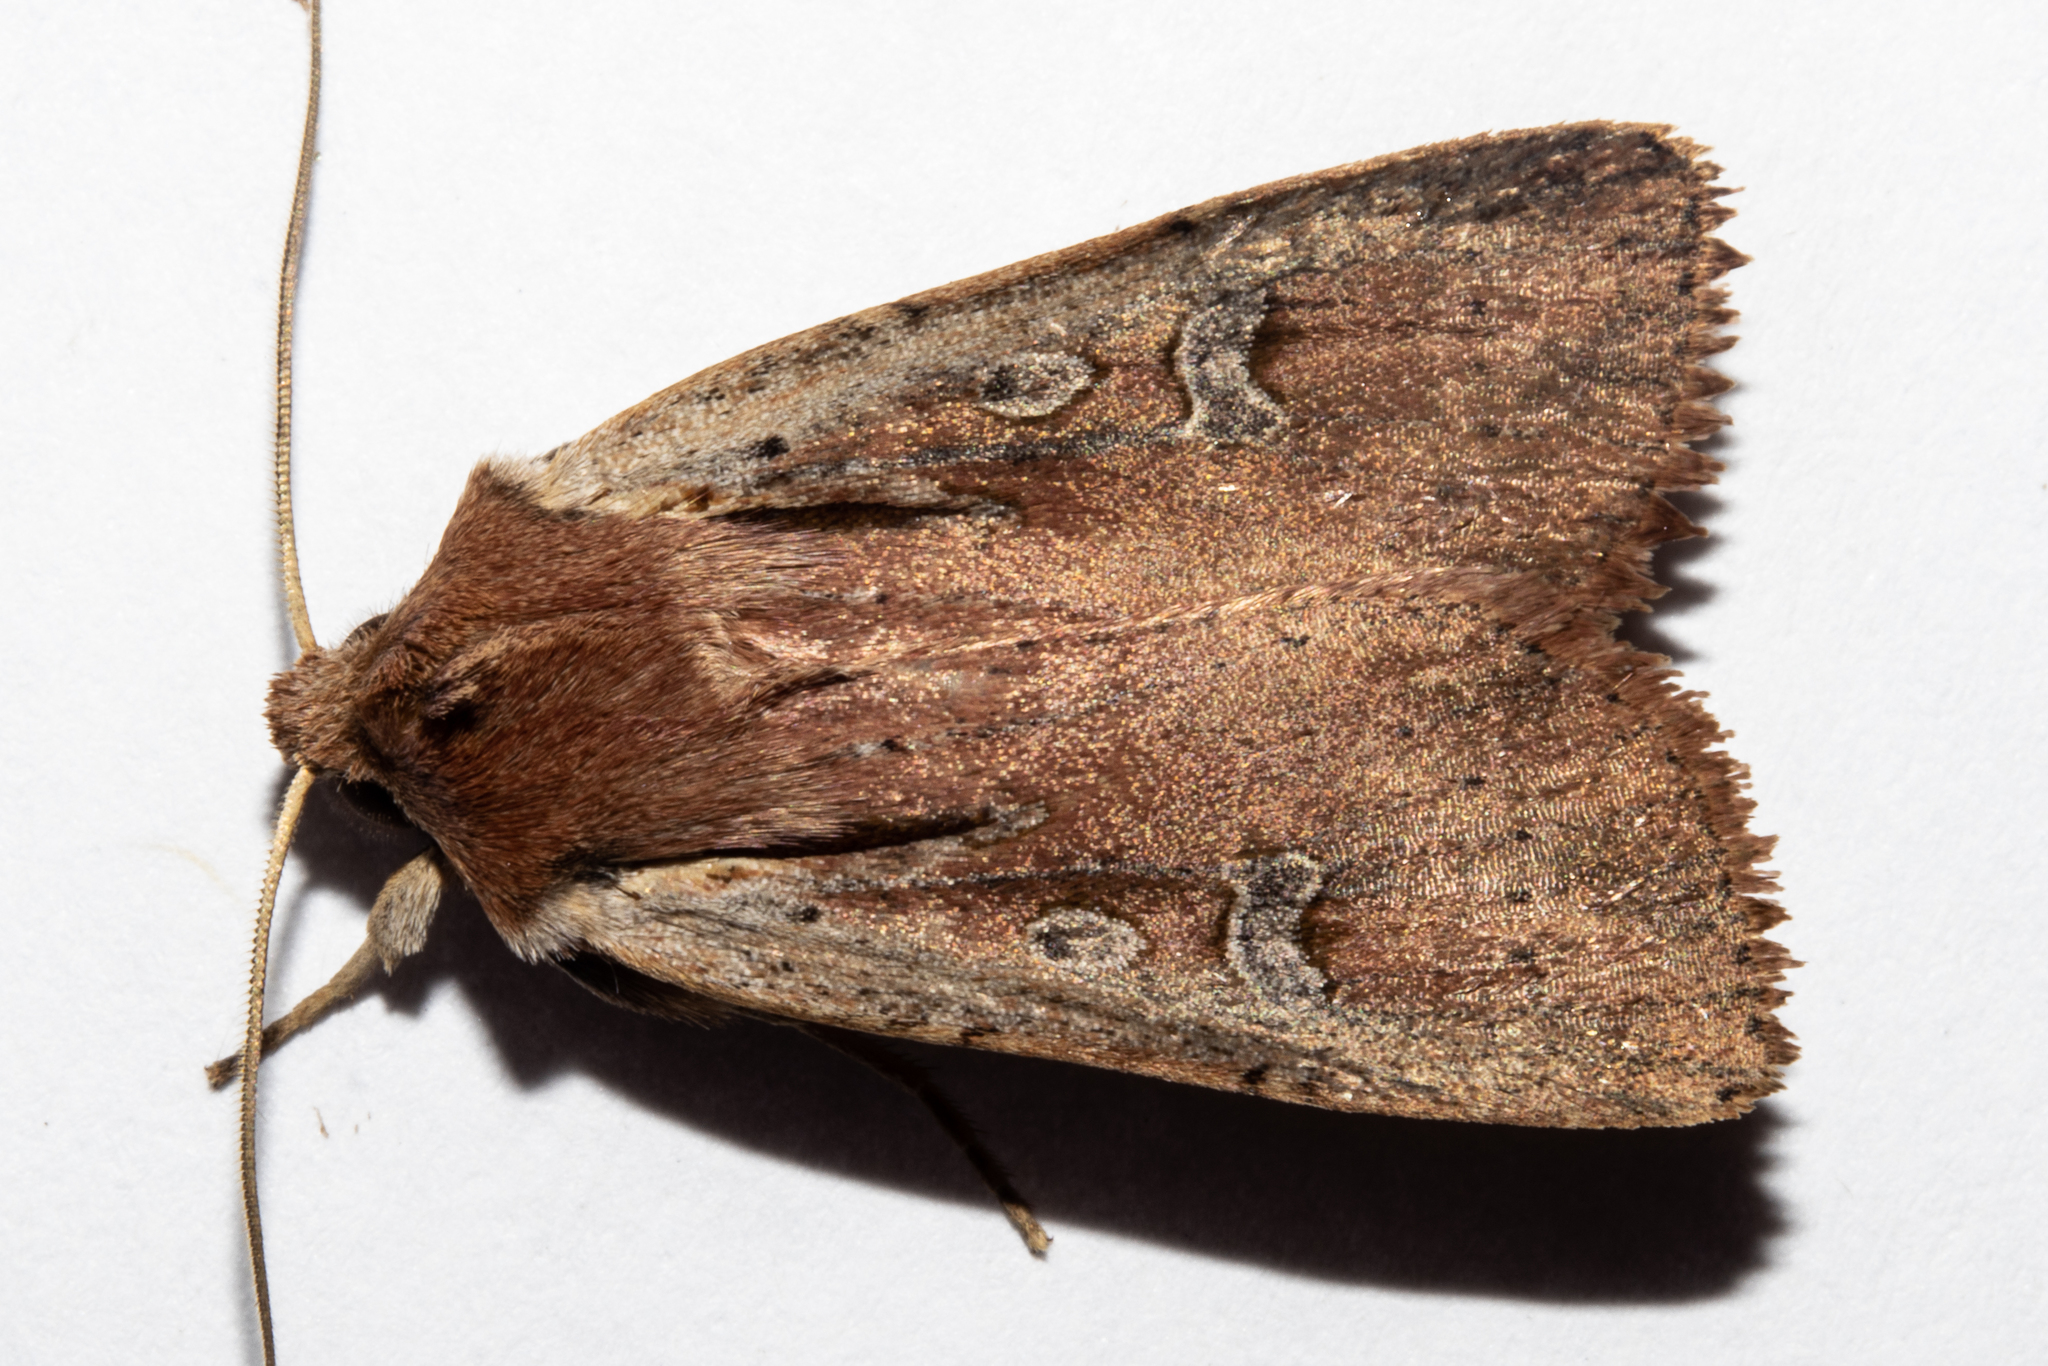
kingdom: Animalia
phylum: Arthropoda
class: Insecta
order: Lepidoptera
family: Noctuidae
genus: Ichneutica
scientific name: Ichneutica atristriga
